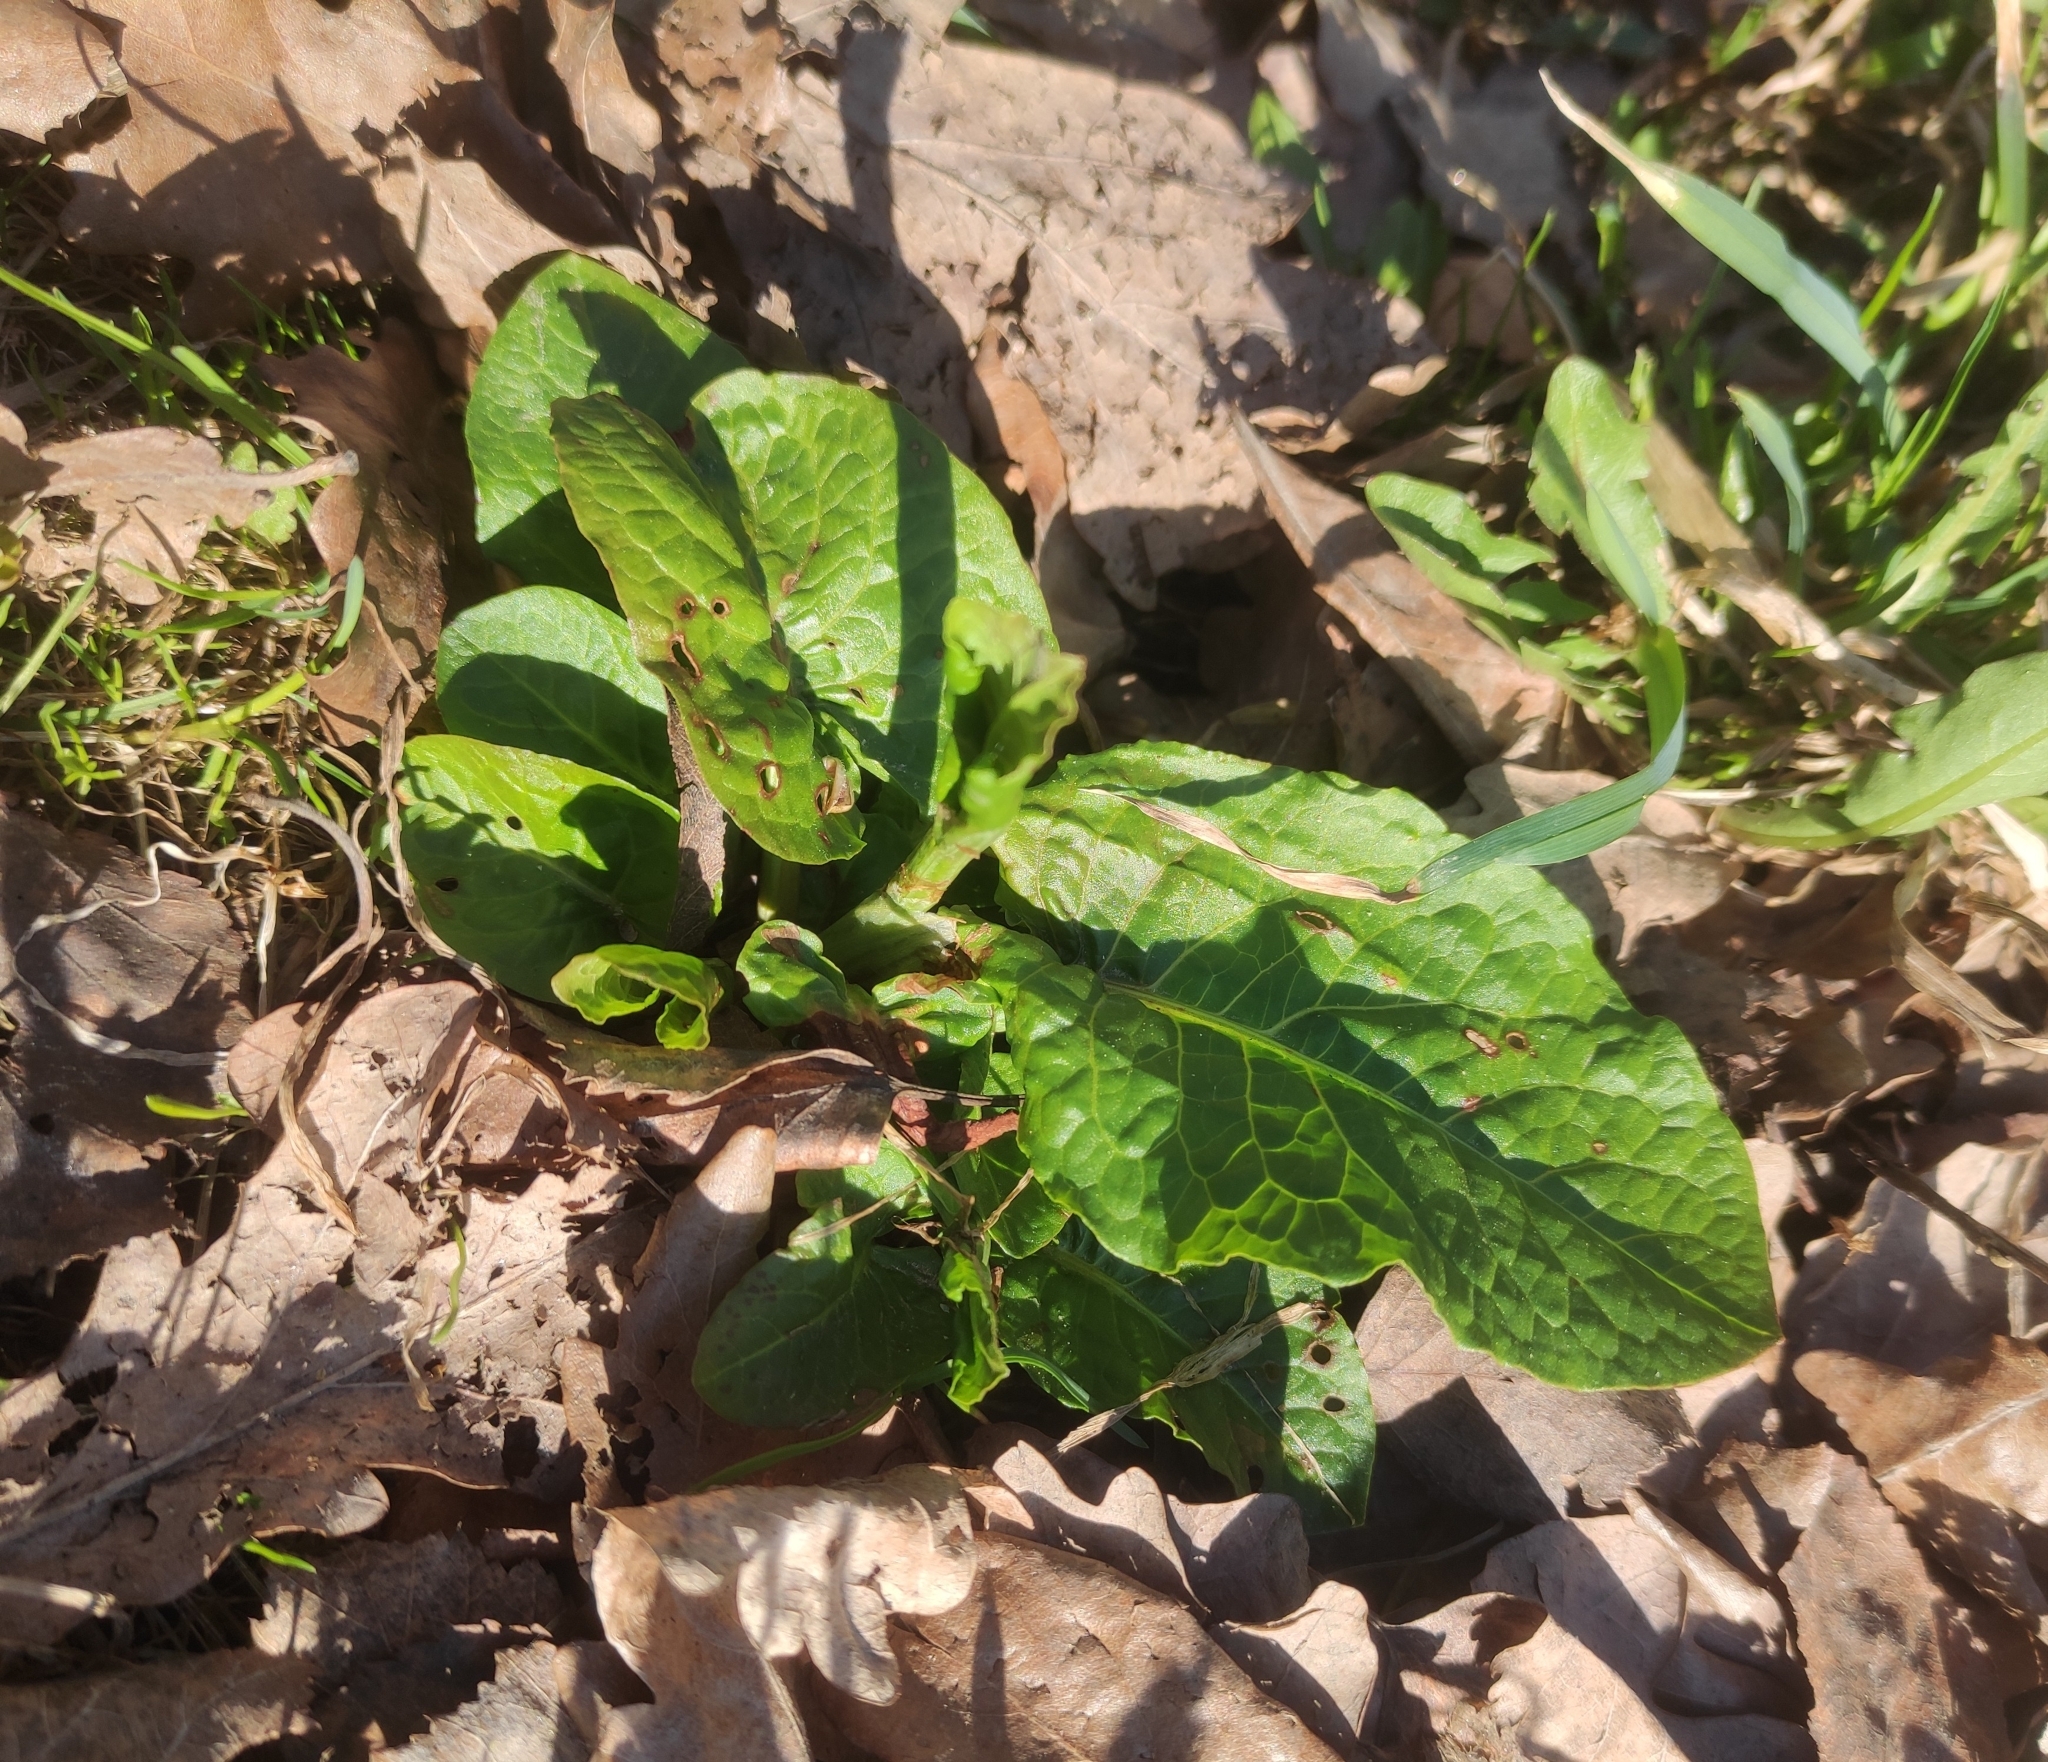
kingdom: Plantae
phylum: Tracheophyta
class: Magnoliopsida
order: Caryophyllales
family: Polygonaceae
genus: Rumex
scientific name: Rumex obtusifolius
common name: Bitter dock
